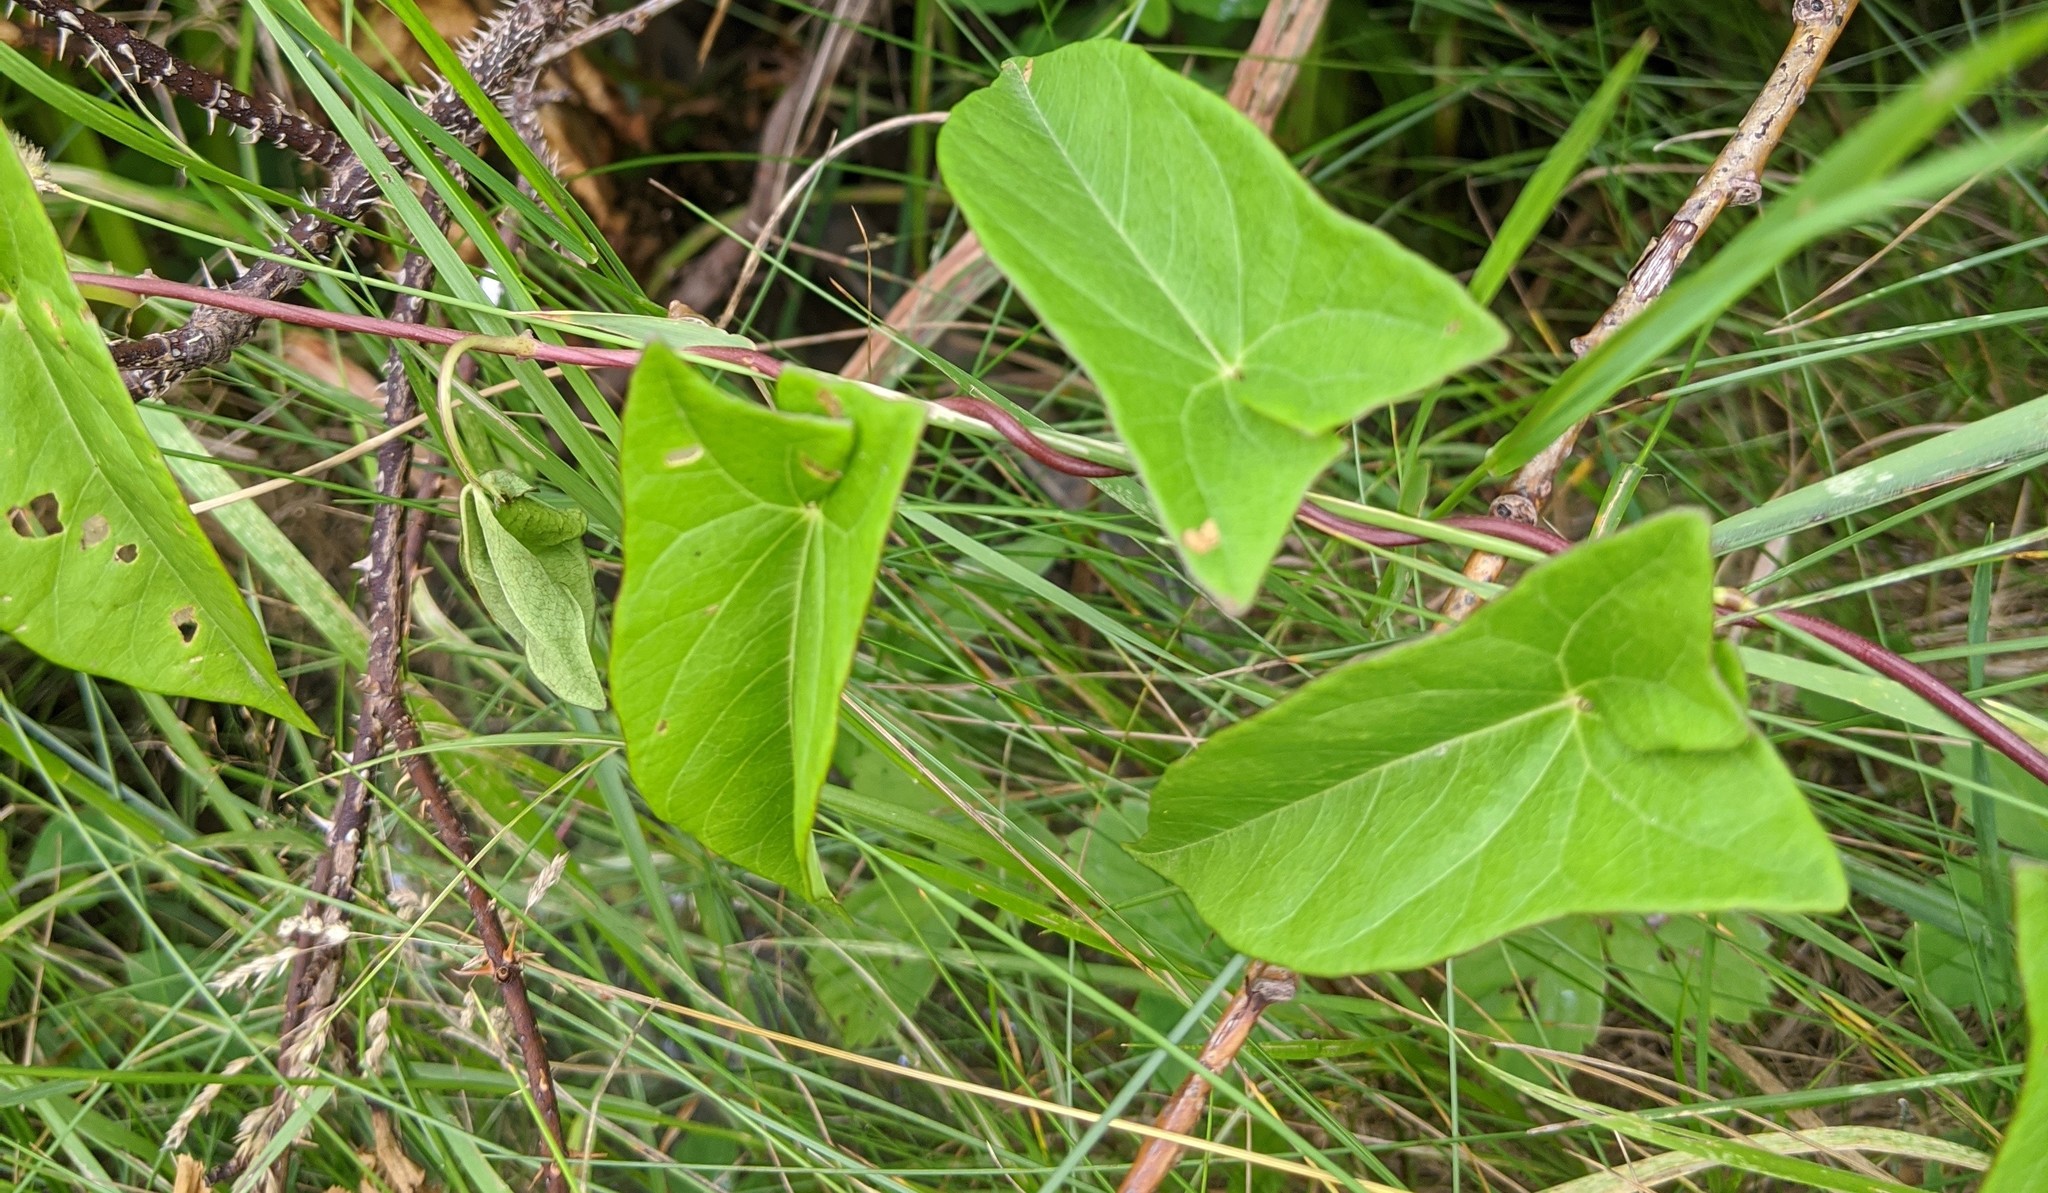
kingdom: Plantae
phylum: Tracheophyta
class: Magnoliopsida
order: Solanales
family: Convolvulaceae
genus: Calystegia
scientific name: Calystegia sepium
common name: Hedge bindweed
